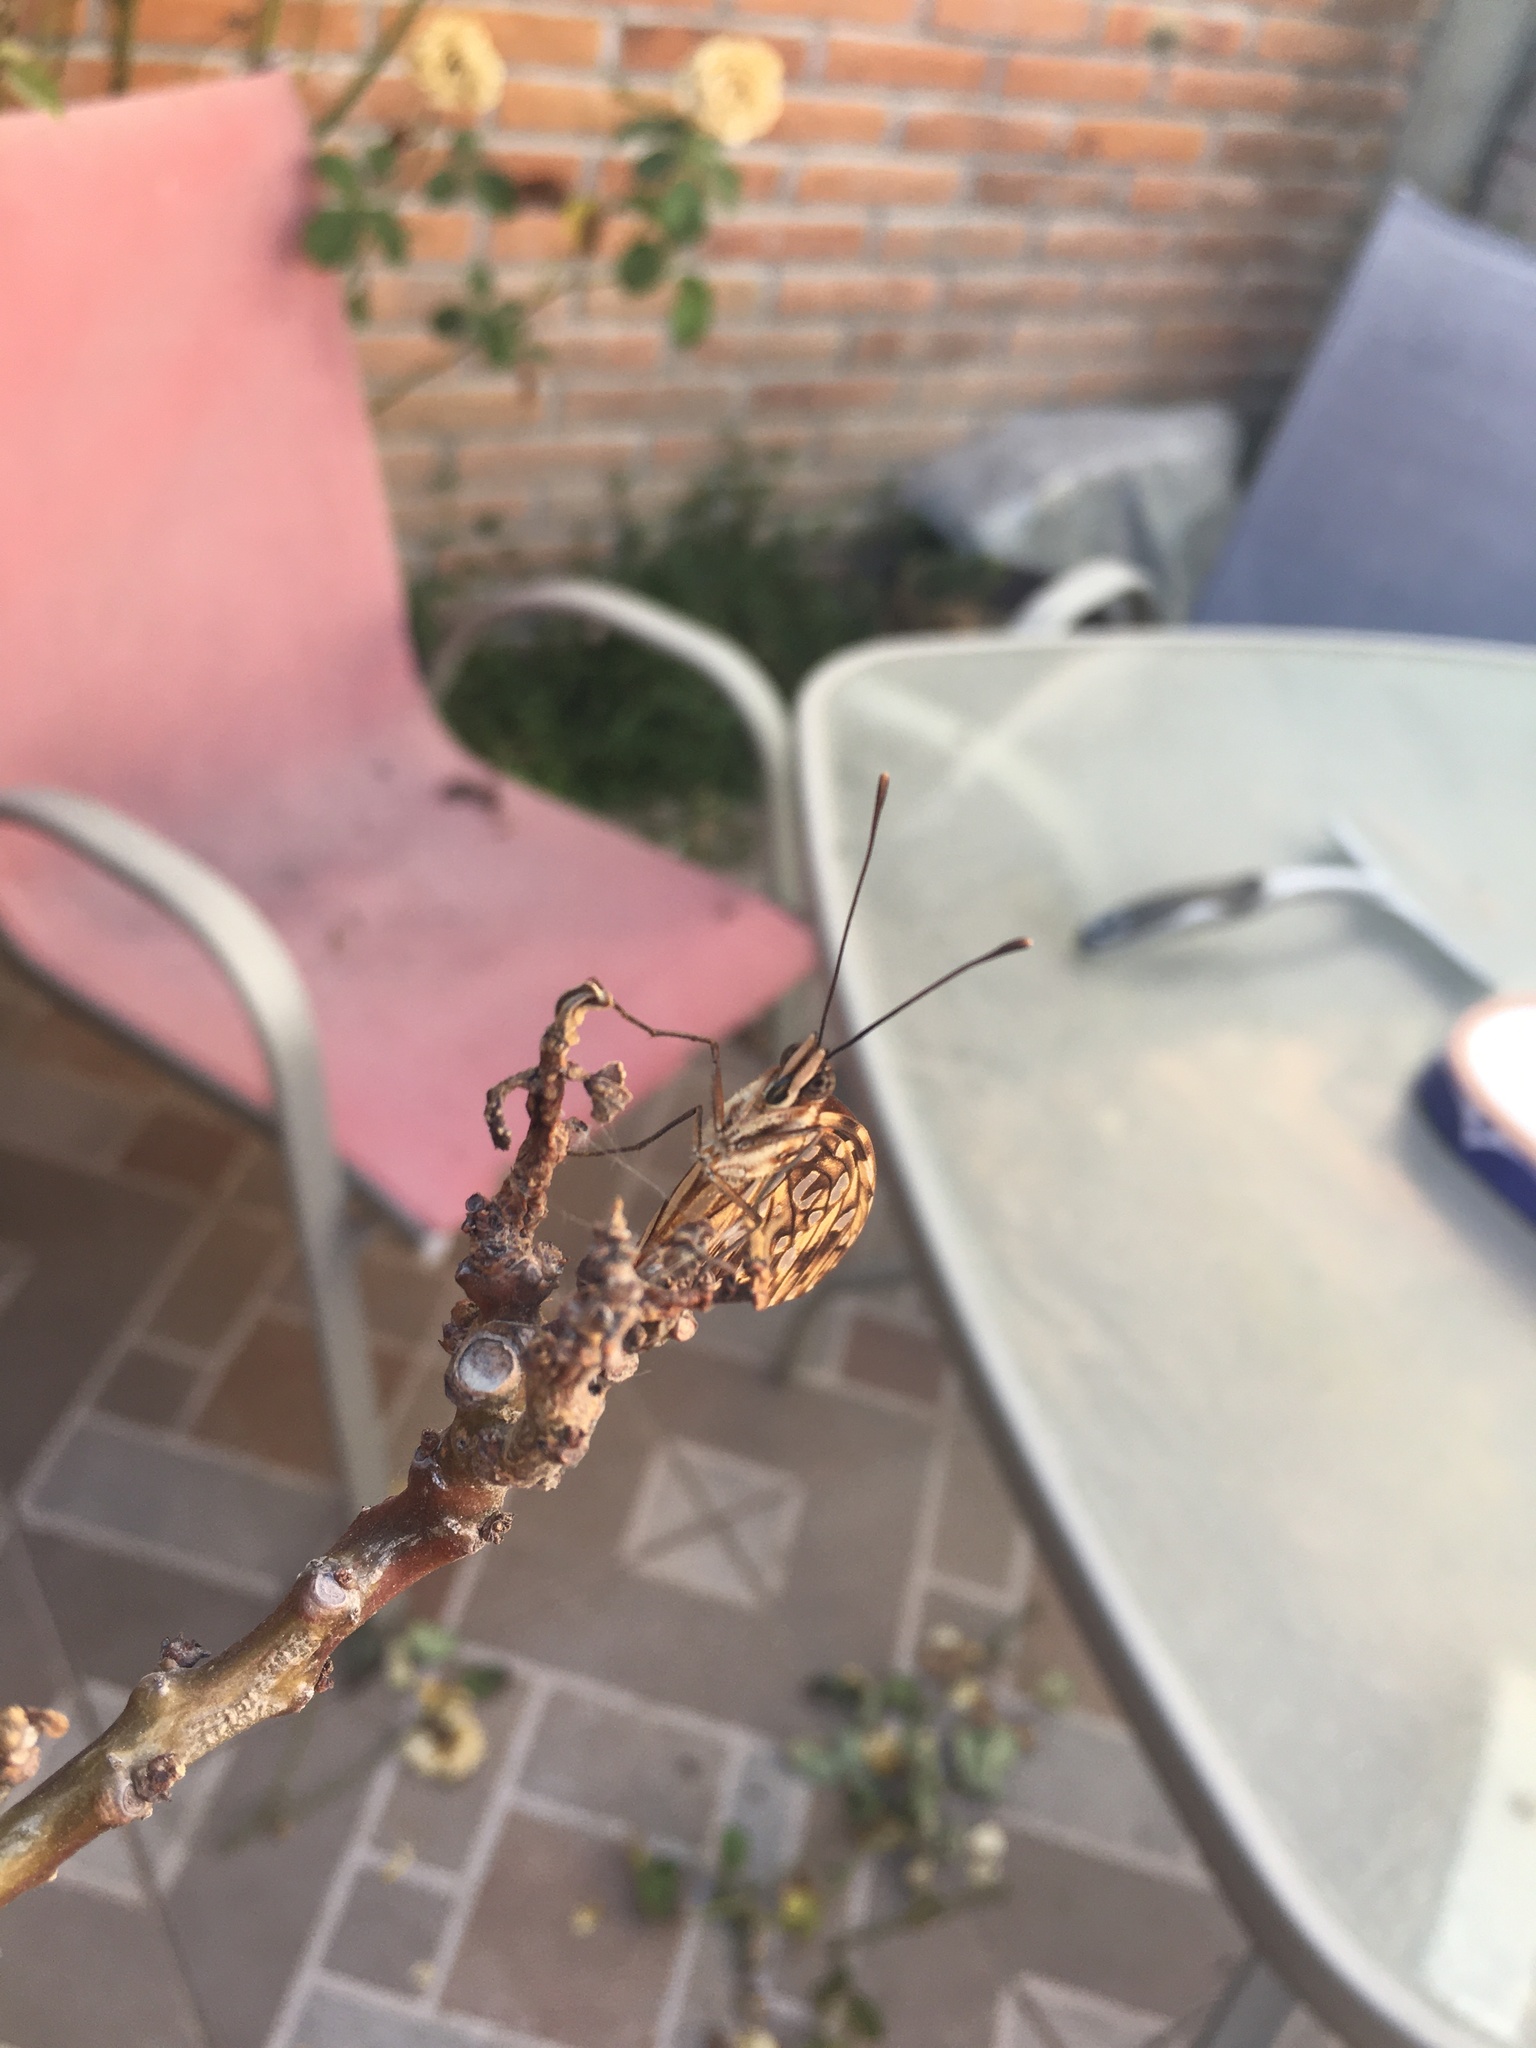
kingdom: Animalia
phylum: Arthropoda
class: Insecta
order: Lepidoptera
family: Nymphalidae
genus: Dione
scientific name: Dione juno
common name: Juno silverspot
